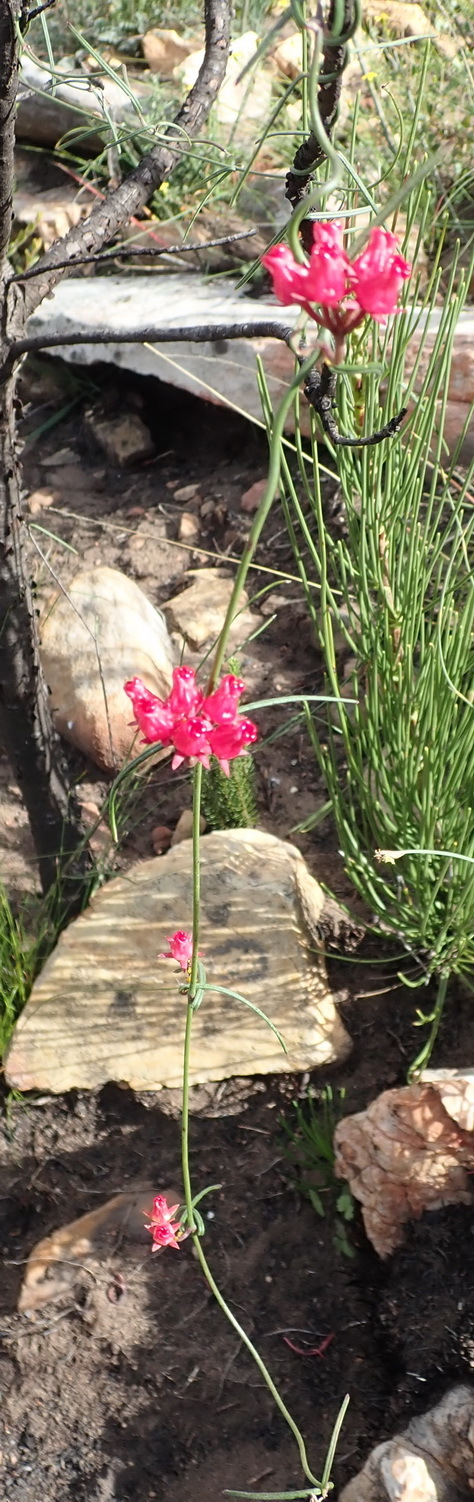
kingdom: Plantae
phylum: Tracheophyta
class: Magnoliopsida
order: Gentianales
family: Apocynaceae
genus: Microloma
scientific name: Microloma tenuifolium
